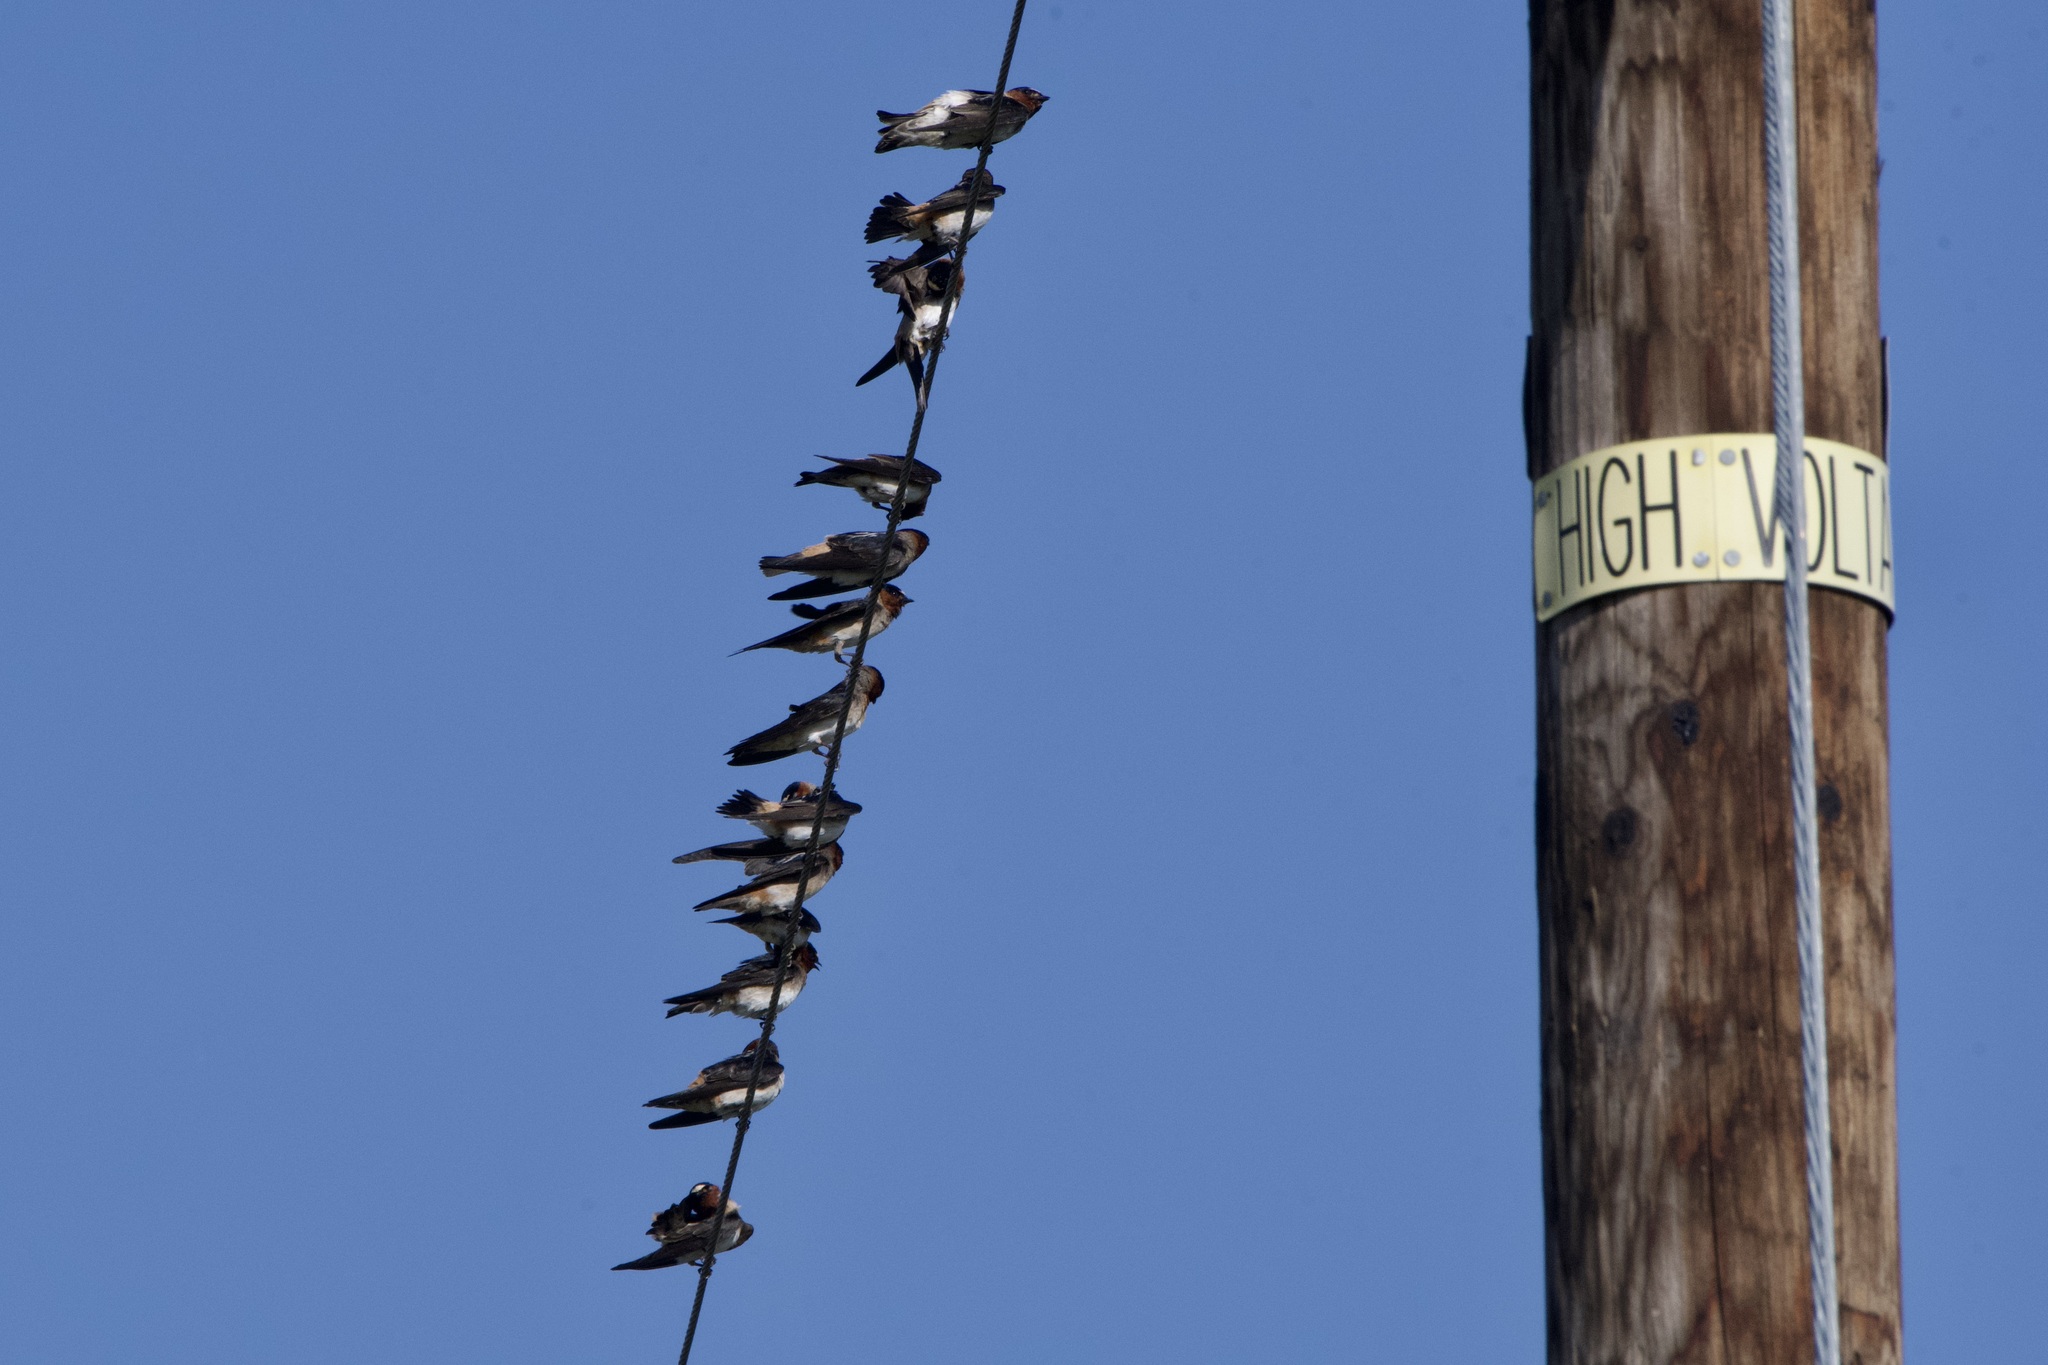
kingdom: Animalia
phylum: Chordata
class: Aves
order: Passeriformes
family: Hirundinidae
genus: Petrochelidon
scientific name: Petrochelidon pyrrhonota
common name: American cliff swallow
